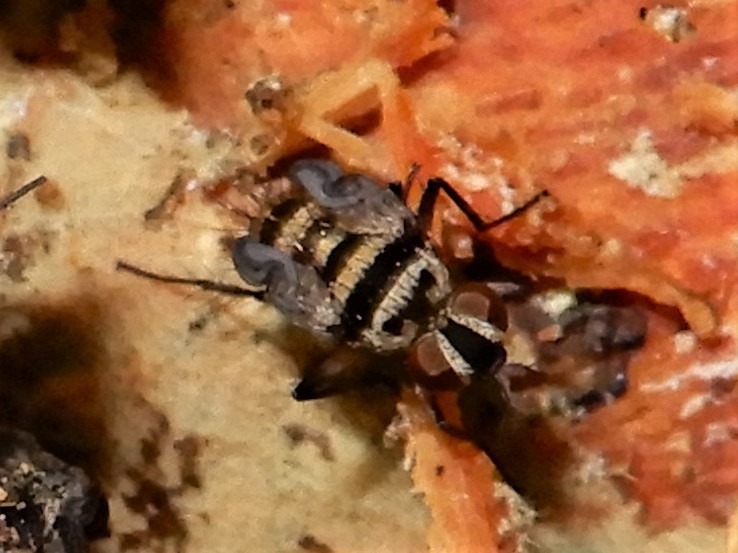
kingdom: Animalia
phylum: Arthropoda
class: Insecta
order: Diptera
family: Tachinidae
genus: Trigonospila
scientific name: Trigonospila brevifacies
